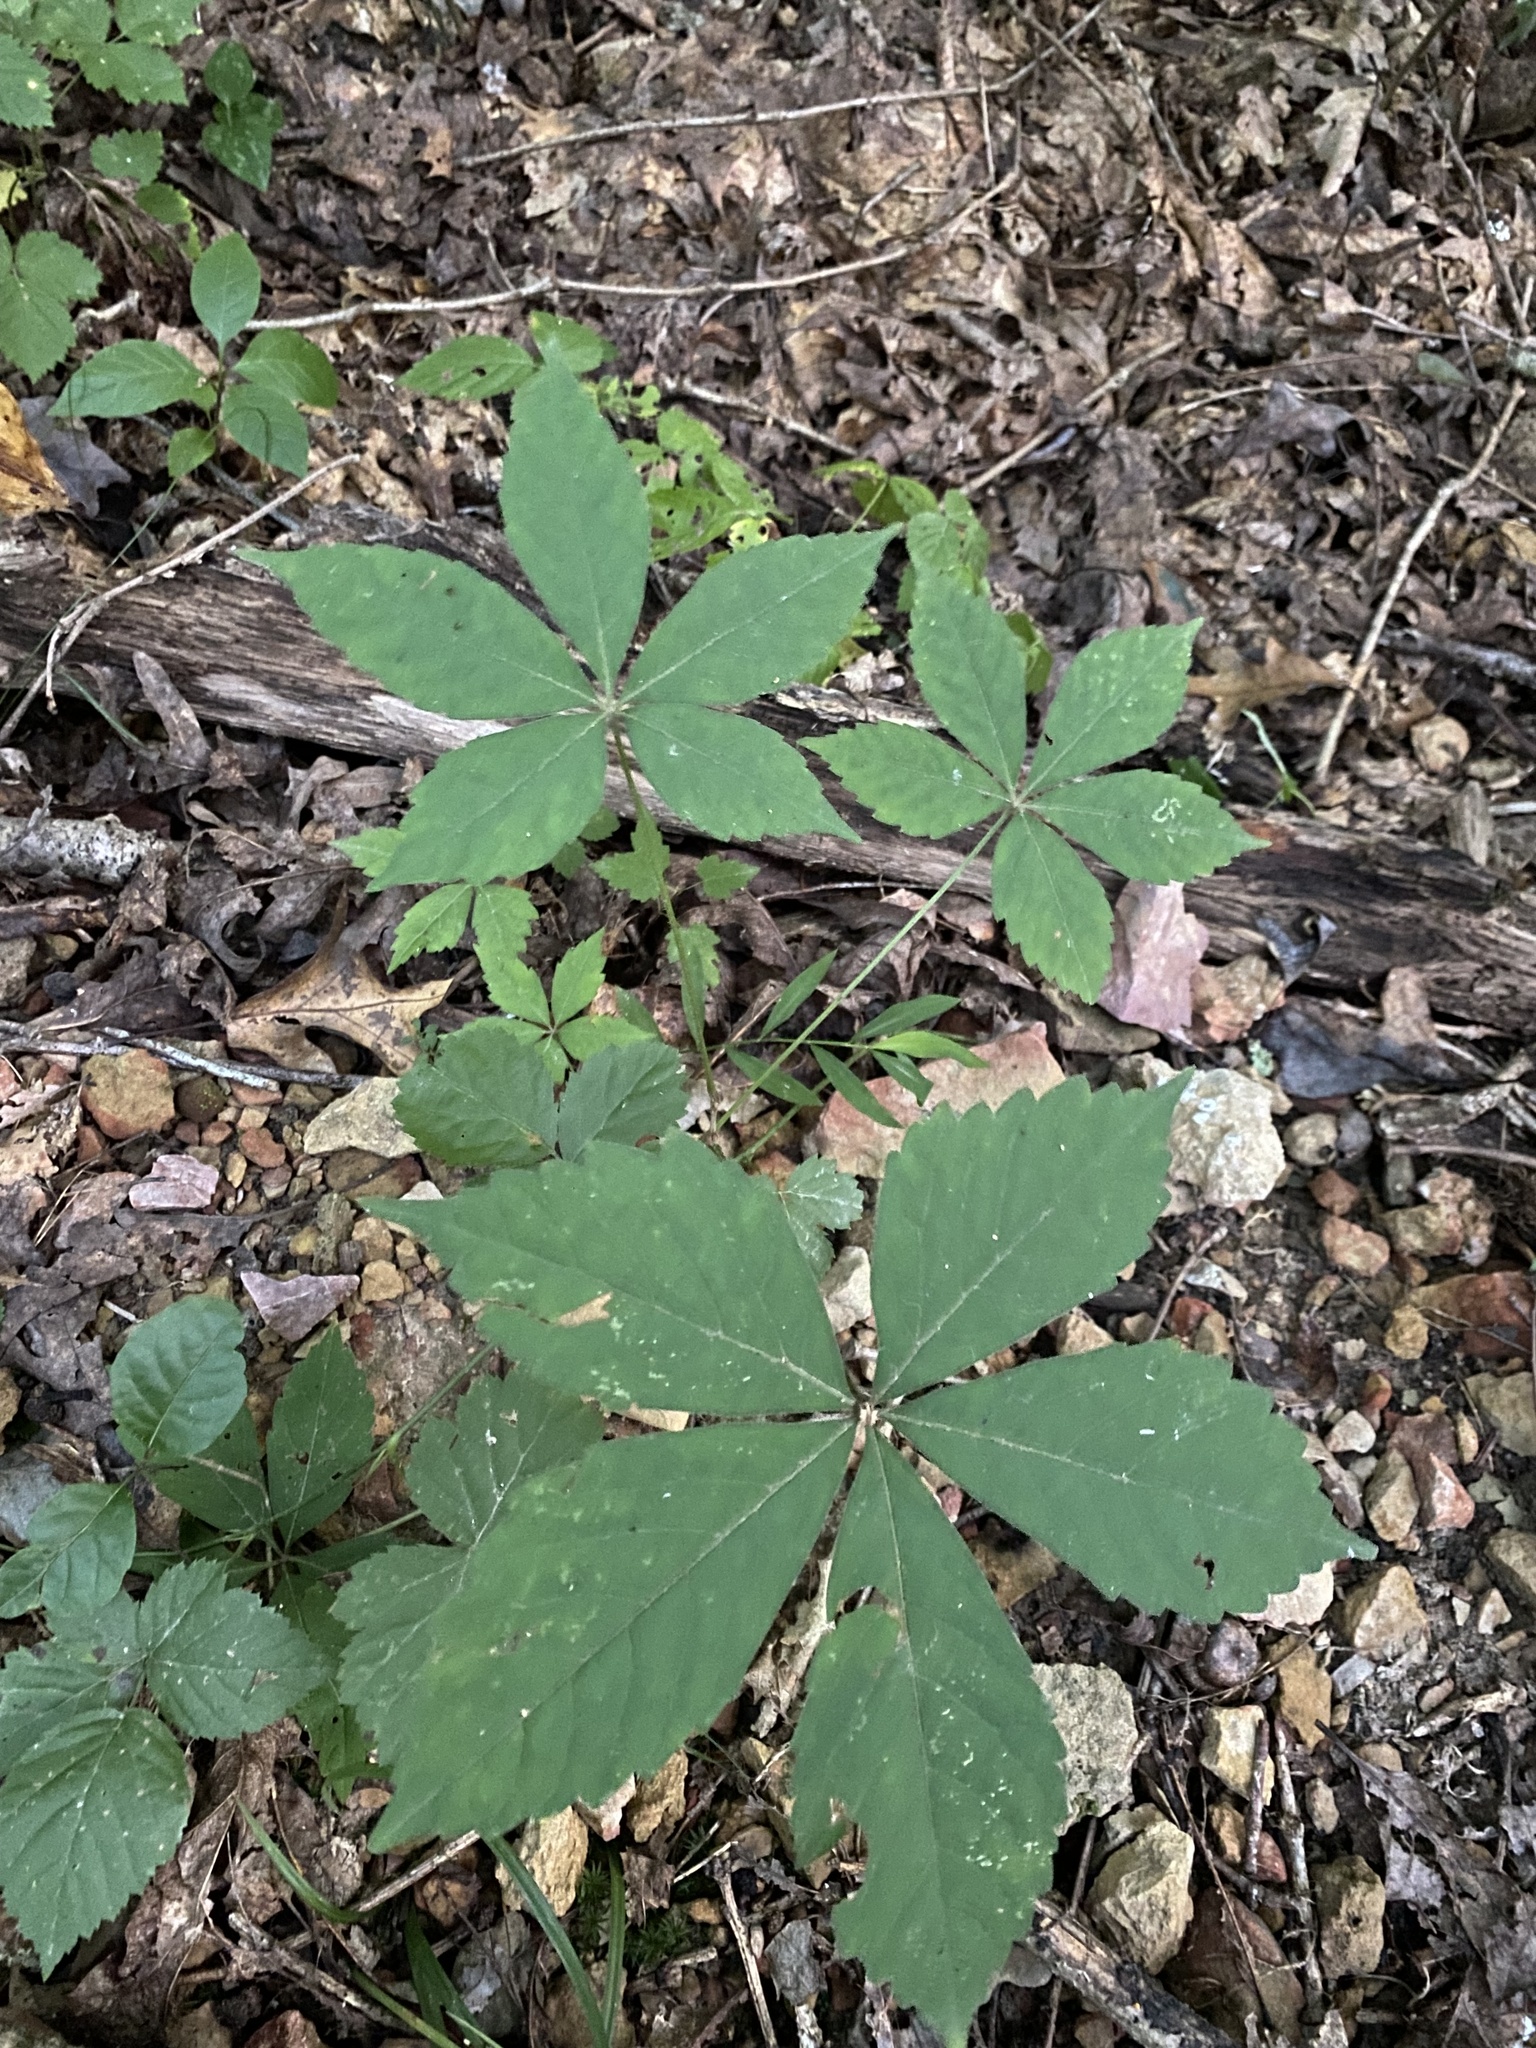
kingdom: Plantae
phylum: Tracheophyta
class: Magnoliopsida
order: Vitales
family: Vitaceae
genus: Parthenocissus
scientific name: Parthenocissus quinquefolia
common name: Virginia-creeper
